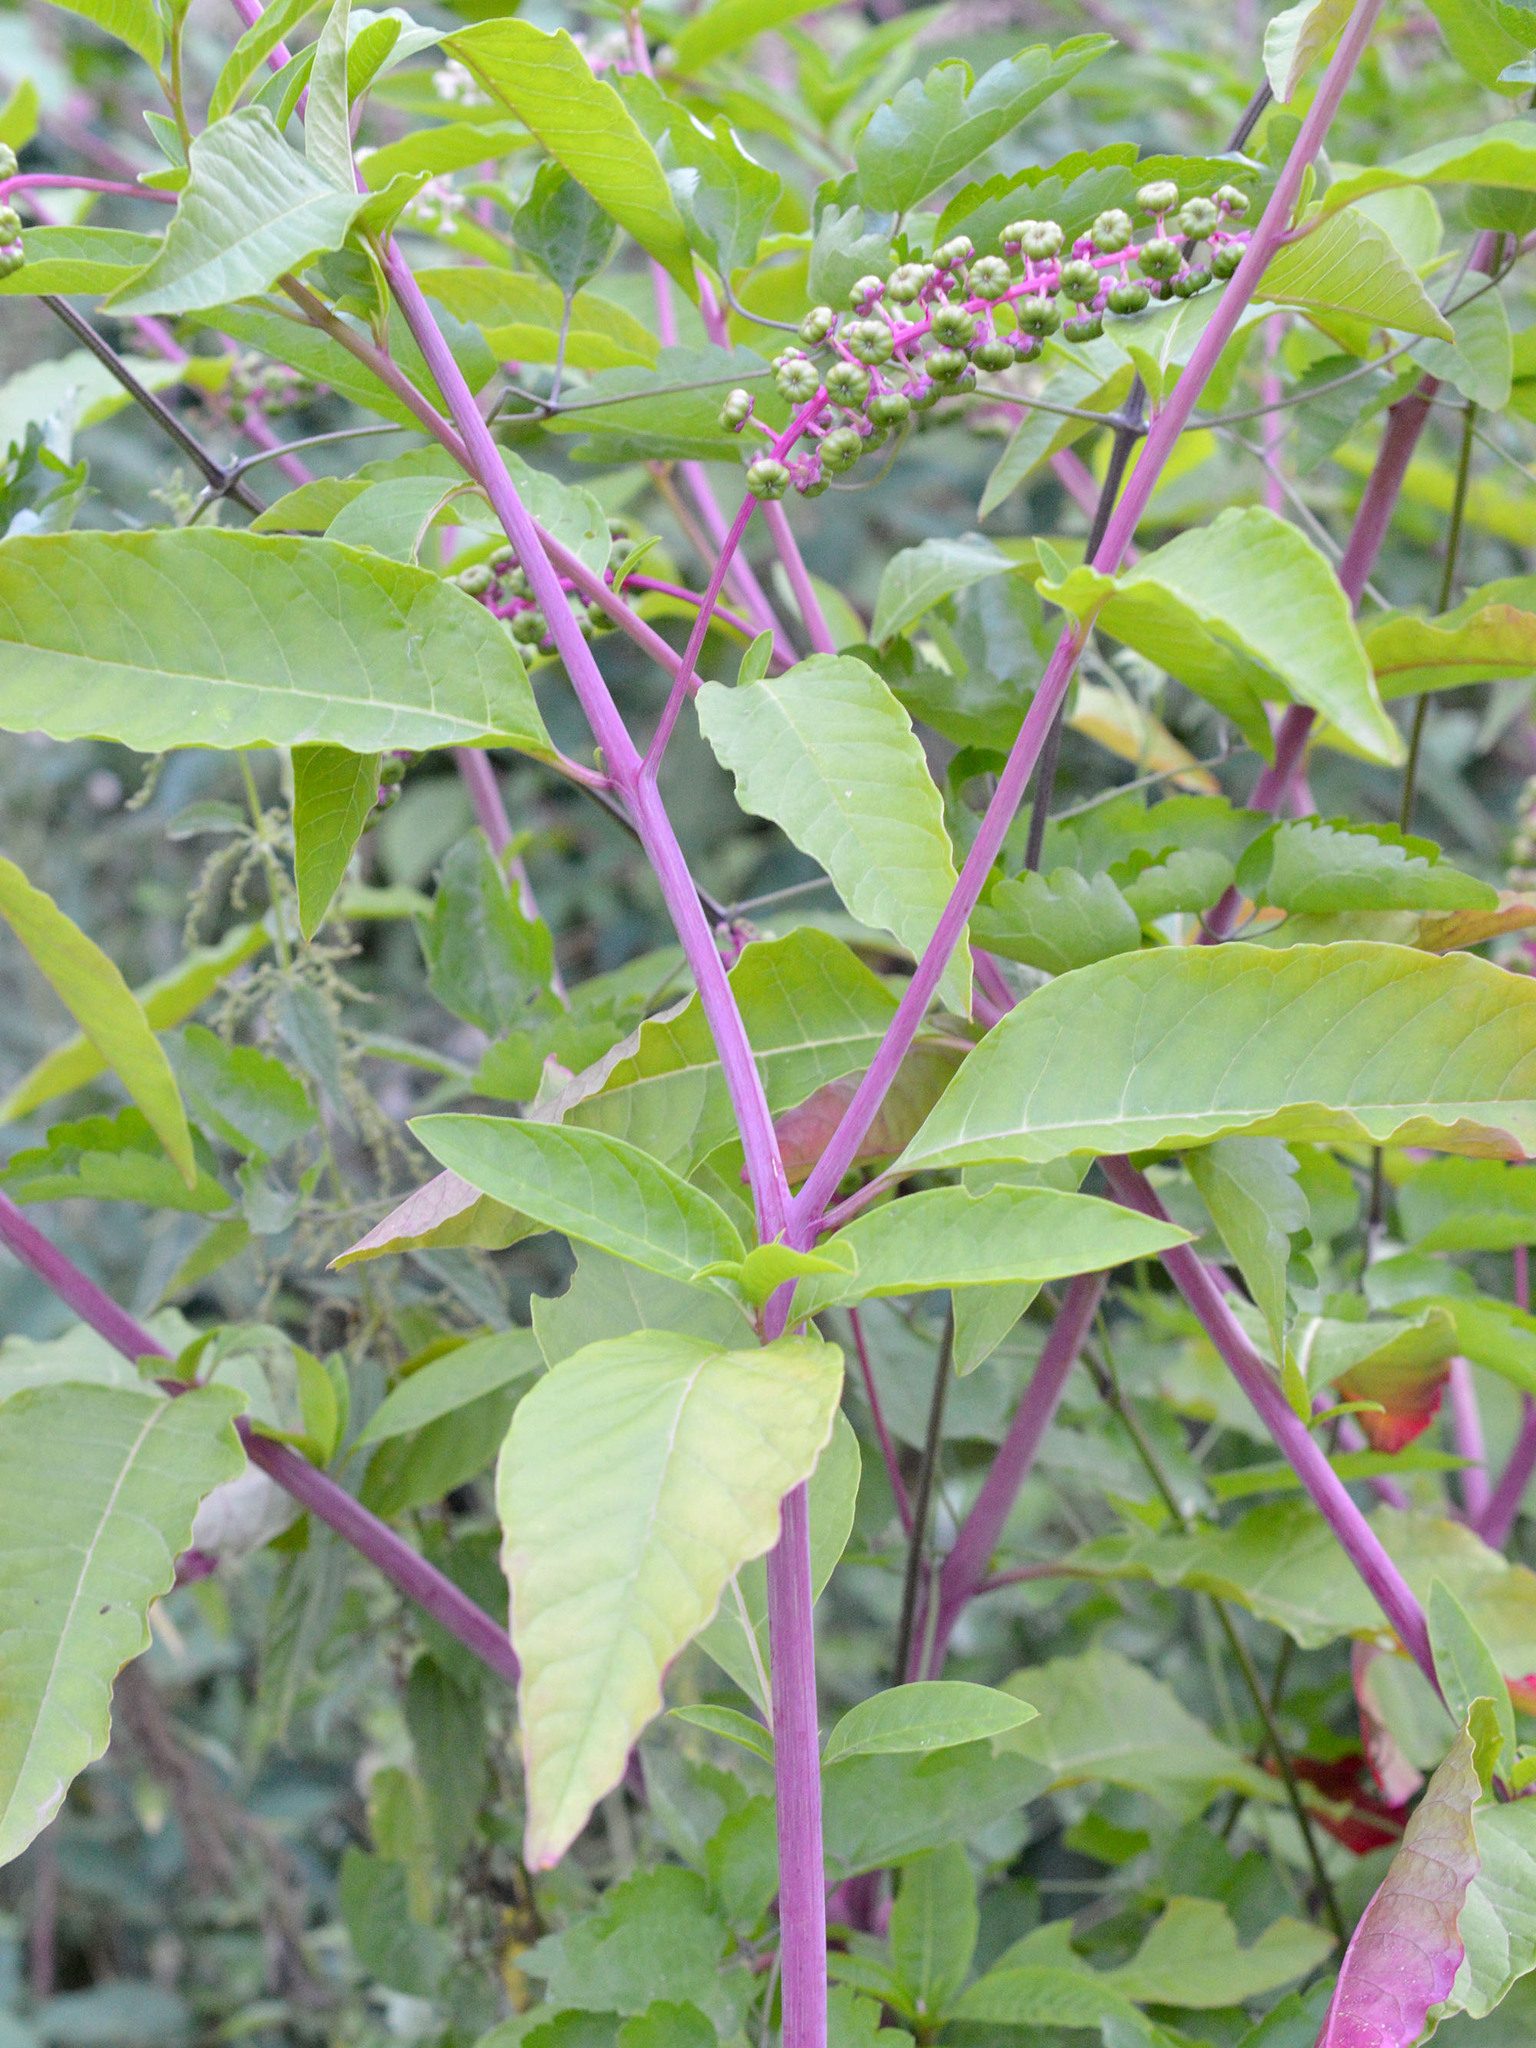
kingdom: Plantae
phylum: Tracheophyta
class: Magnoliopsida
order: Caryophyllales
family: Phytolaccaceae
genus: Phytolacca
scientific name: Phytolacca americana
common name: American pokeweed
